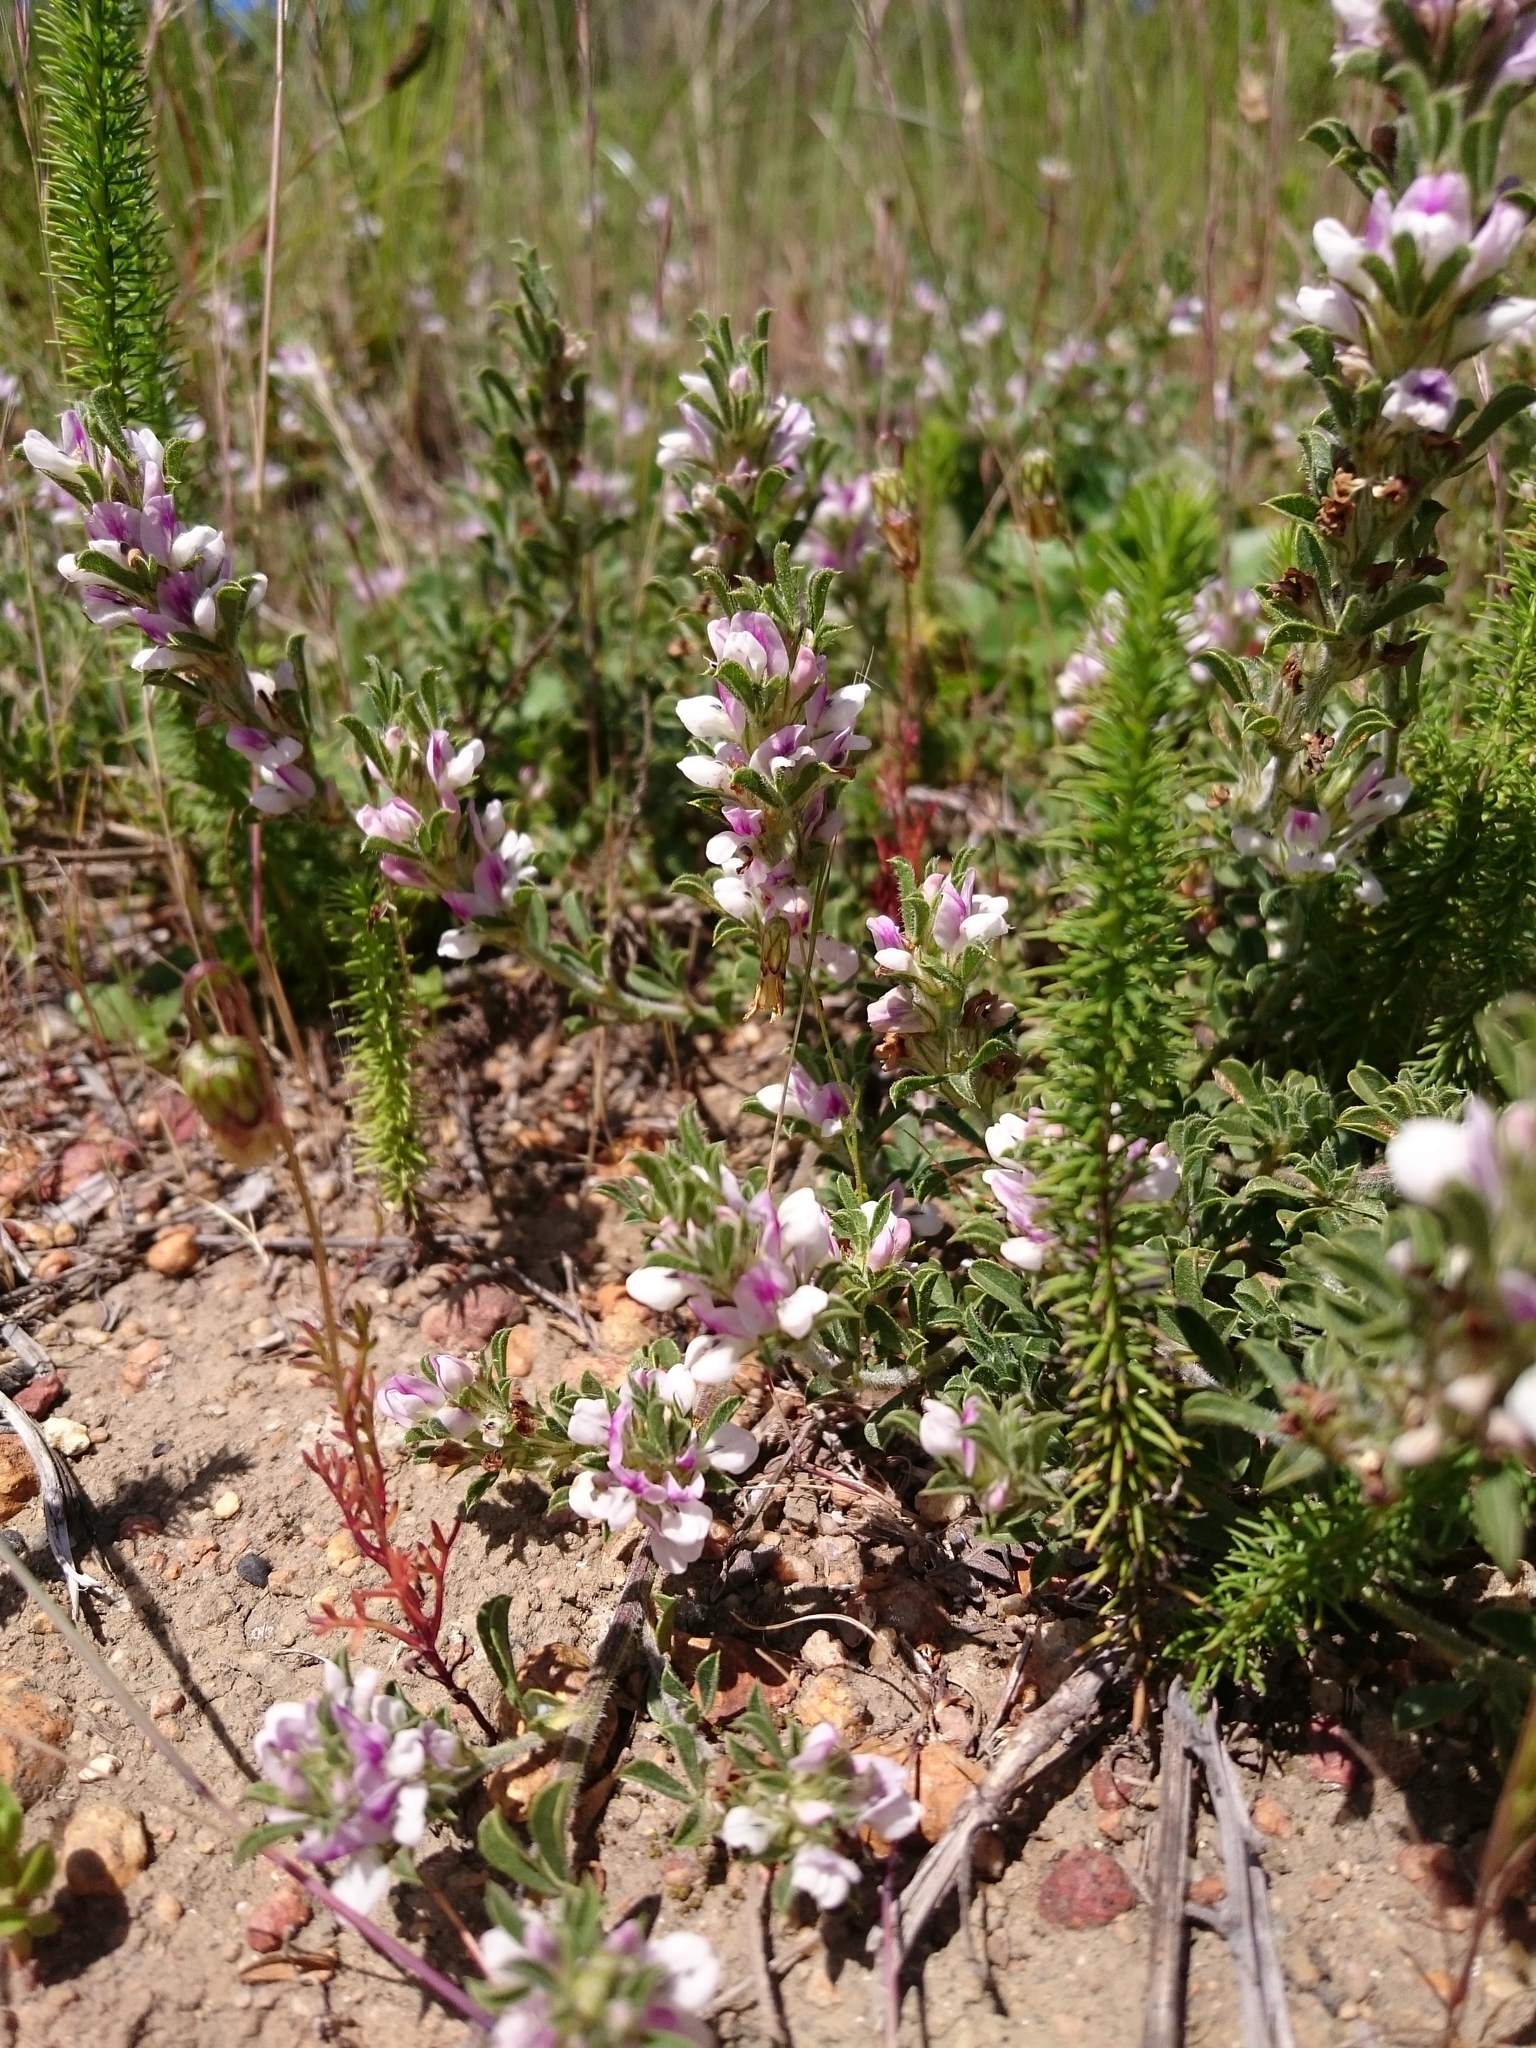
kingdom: Plantae
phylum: Tracheophyta
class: Magnoliopsida
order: Fabales
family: Fabaceae
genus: Psoralea
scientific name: Psoralea
